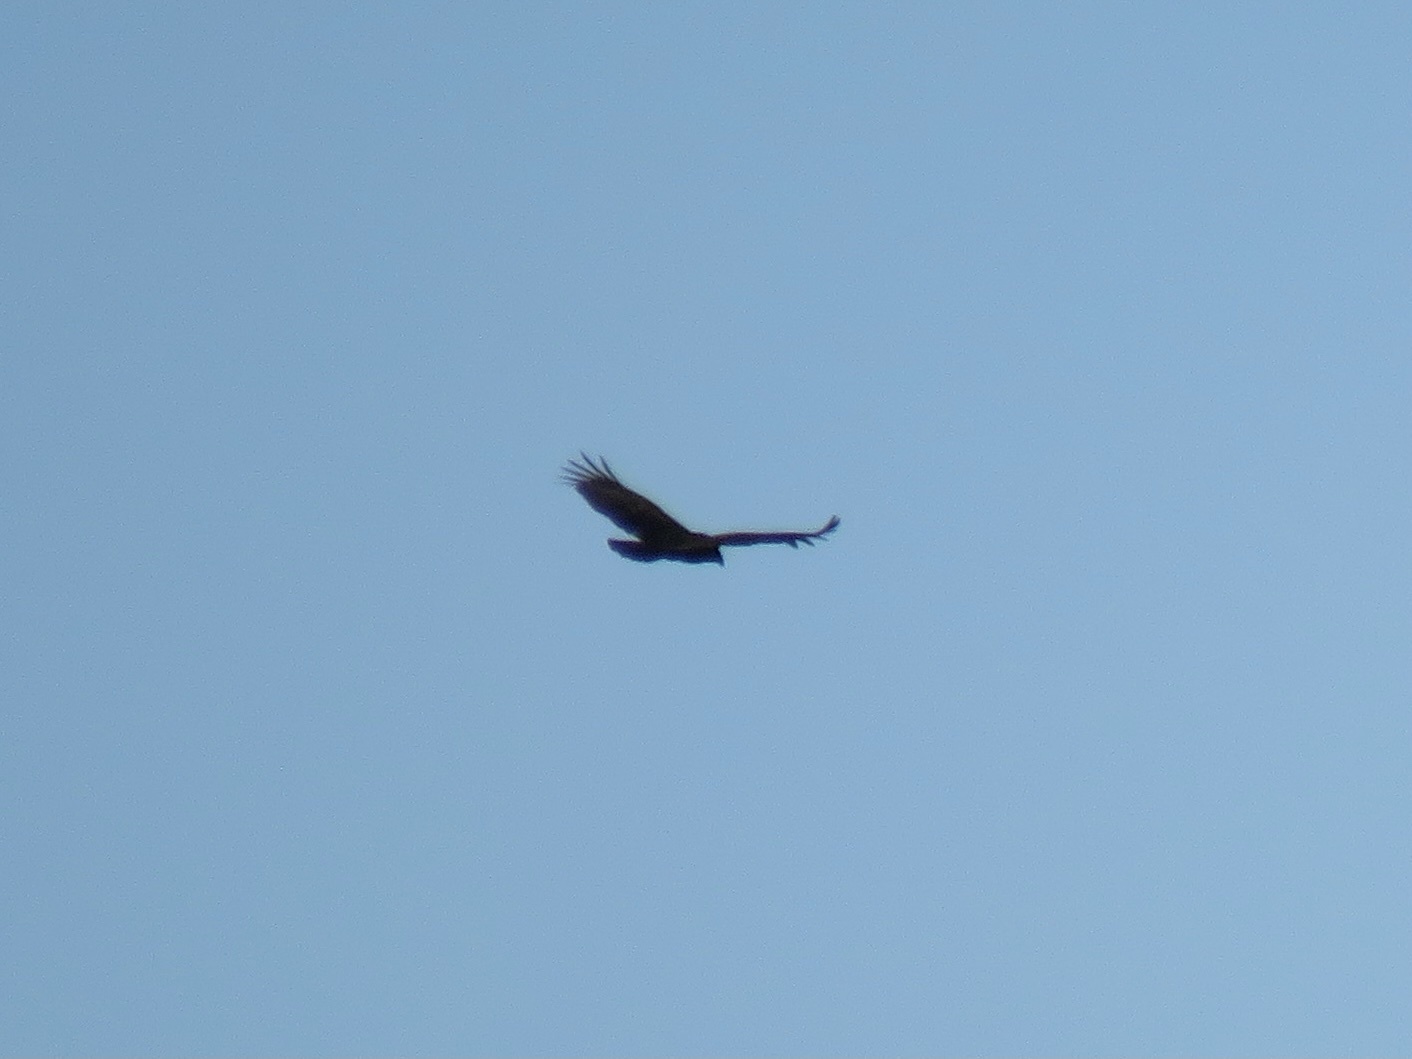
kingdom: Animalia
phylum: Chordata
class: Aves
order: Accipitriformes
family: Cathartidae
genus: Cathartes
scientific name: Cathartes aura
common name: Turkey vulture
